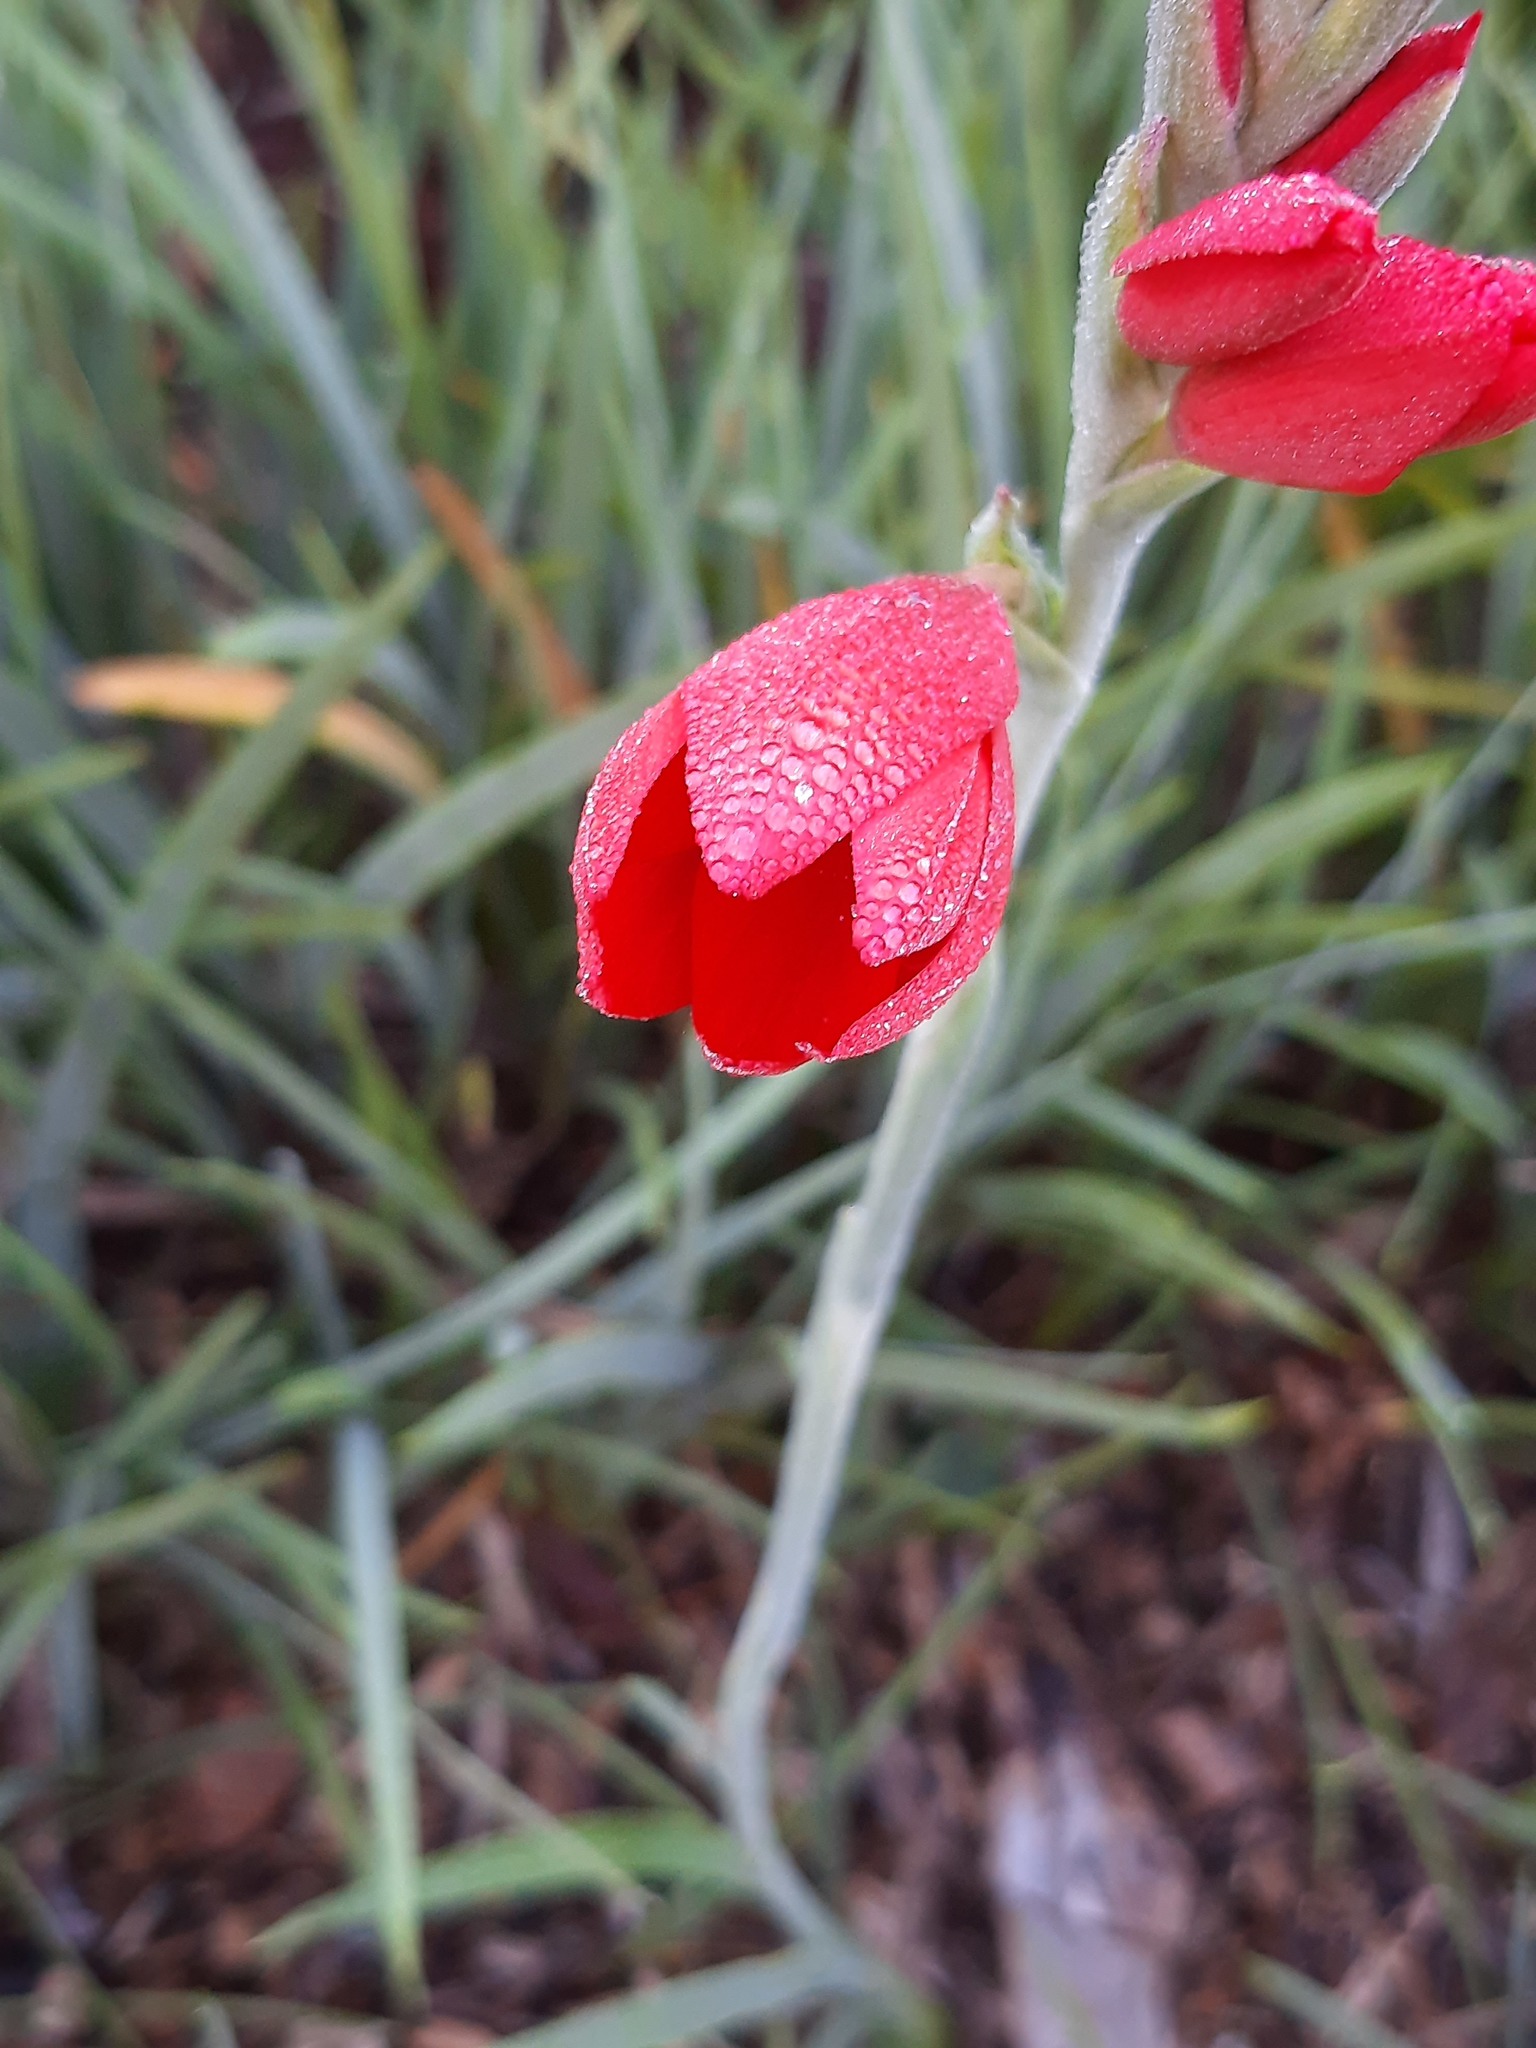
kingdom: Plantae
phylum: Tracheophyta
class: Liliopsida
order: Asparagales
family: Iridaceae
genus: Hesperantha
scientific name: Hesperantha coccinea
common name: River-lily
